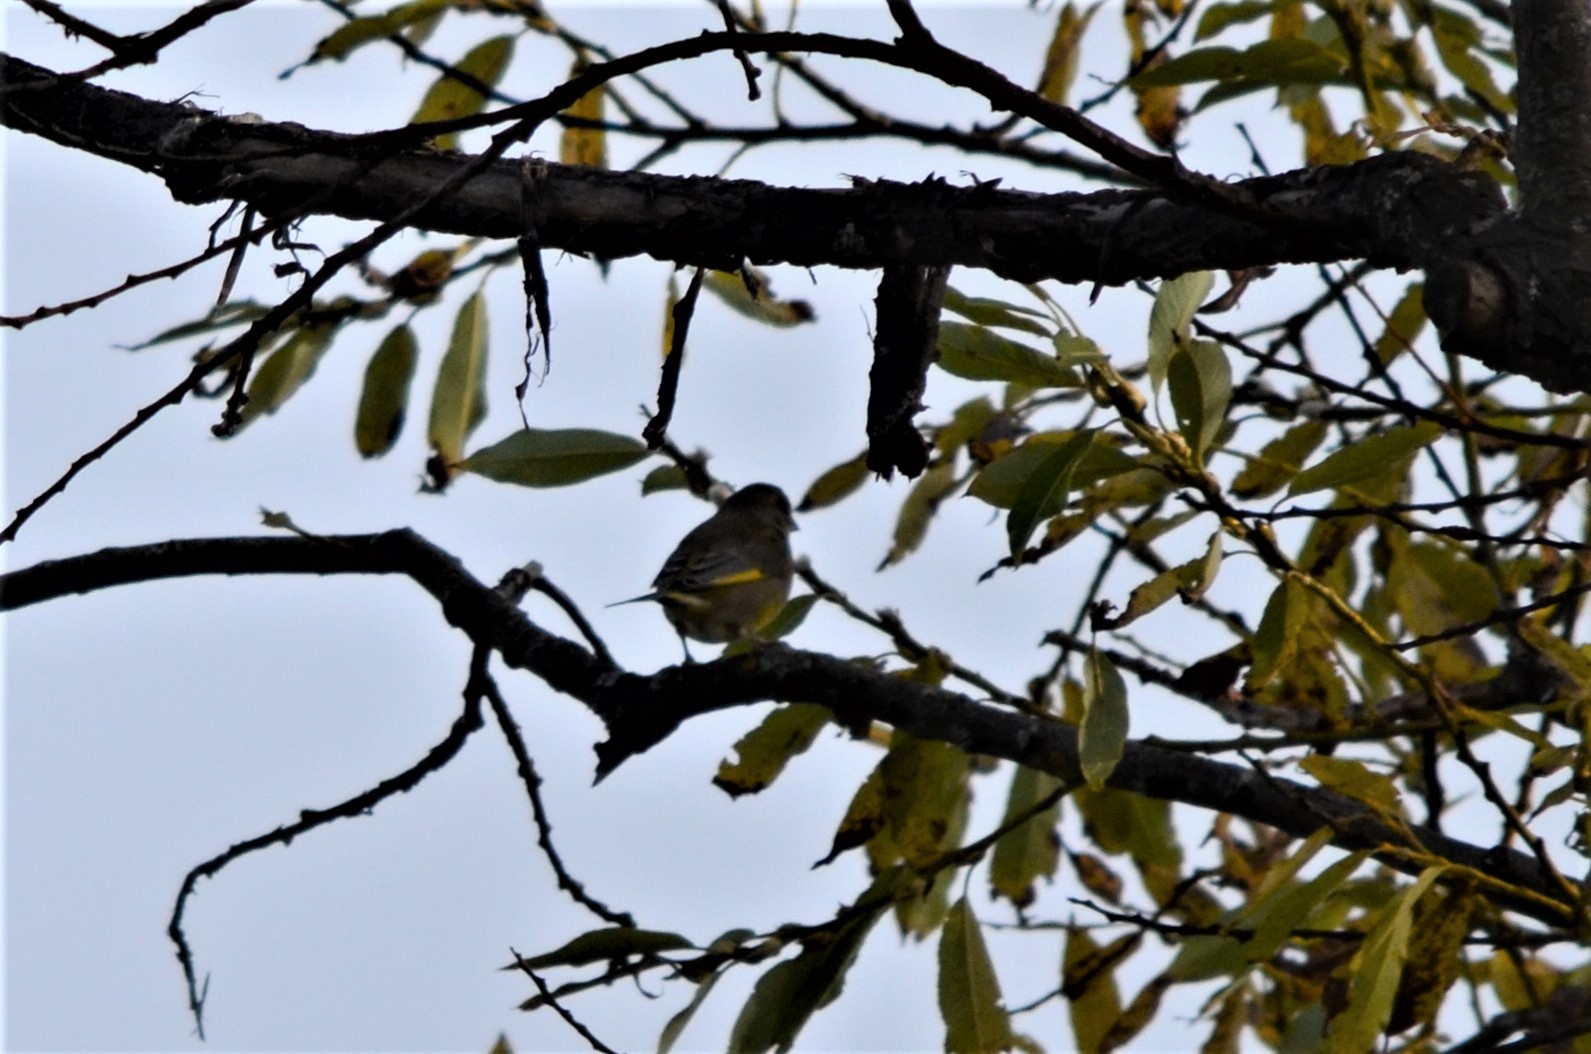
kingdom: Plantae
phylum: Tracheophyta
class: Liliopsida
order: Poales
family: Poaceae
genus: Chloris
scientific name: Chloris chloris
